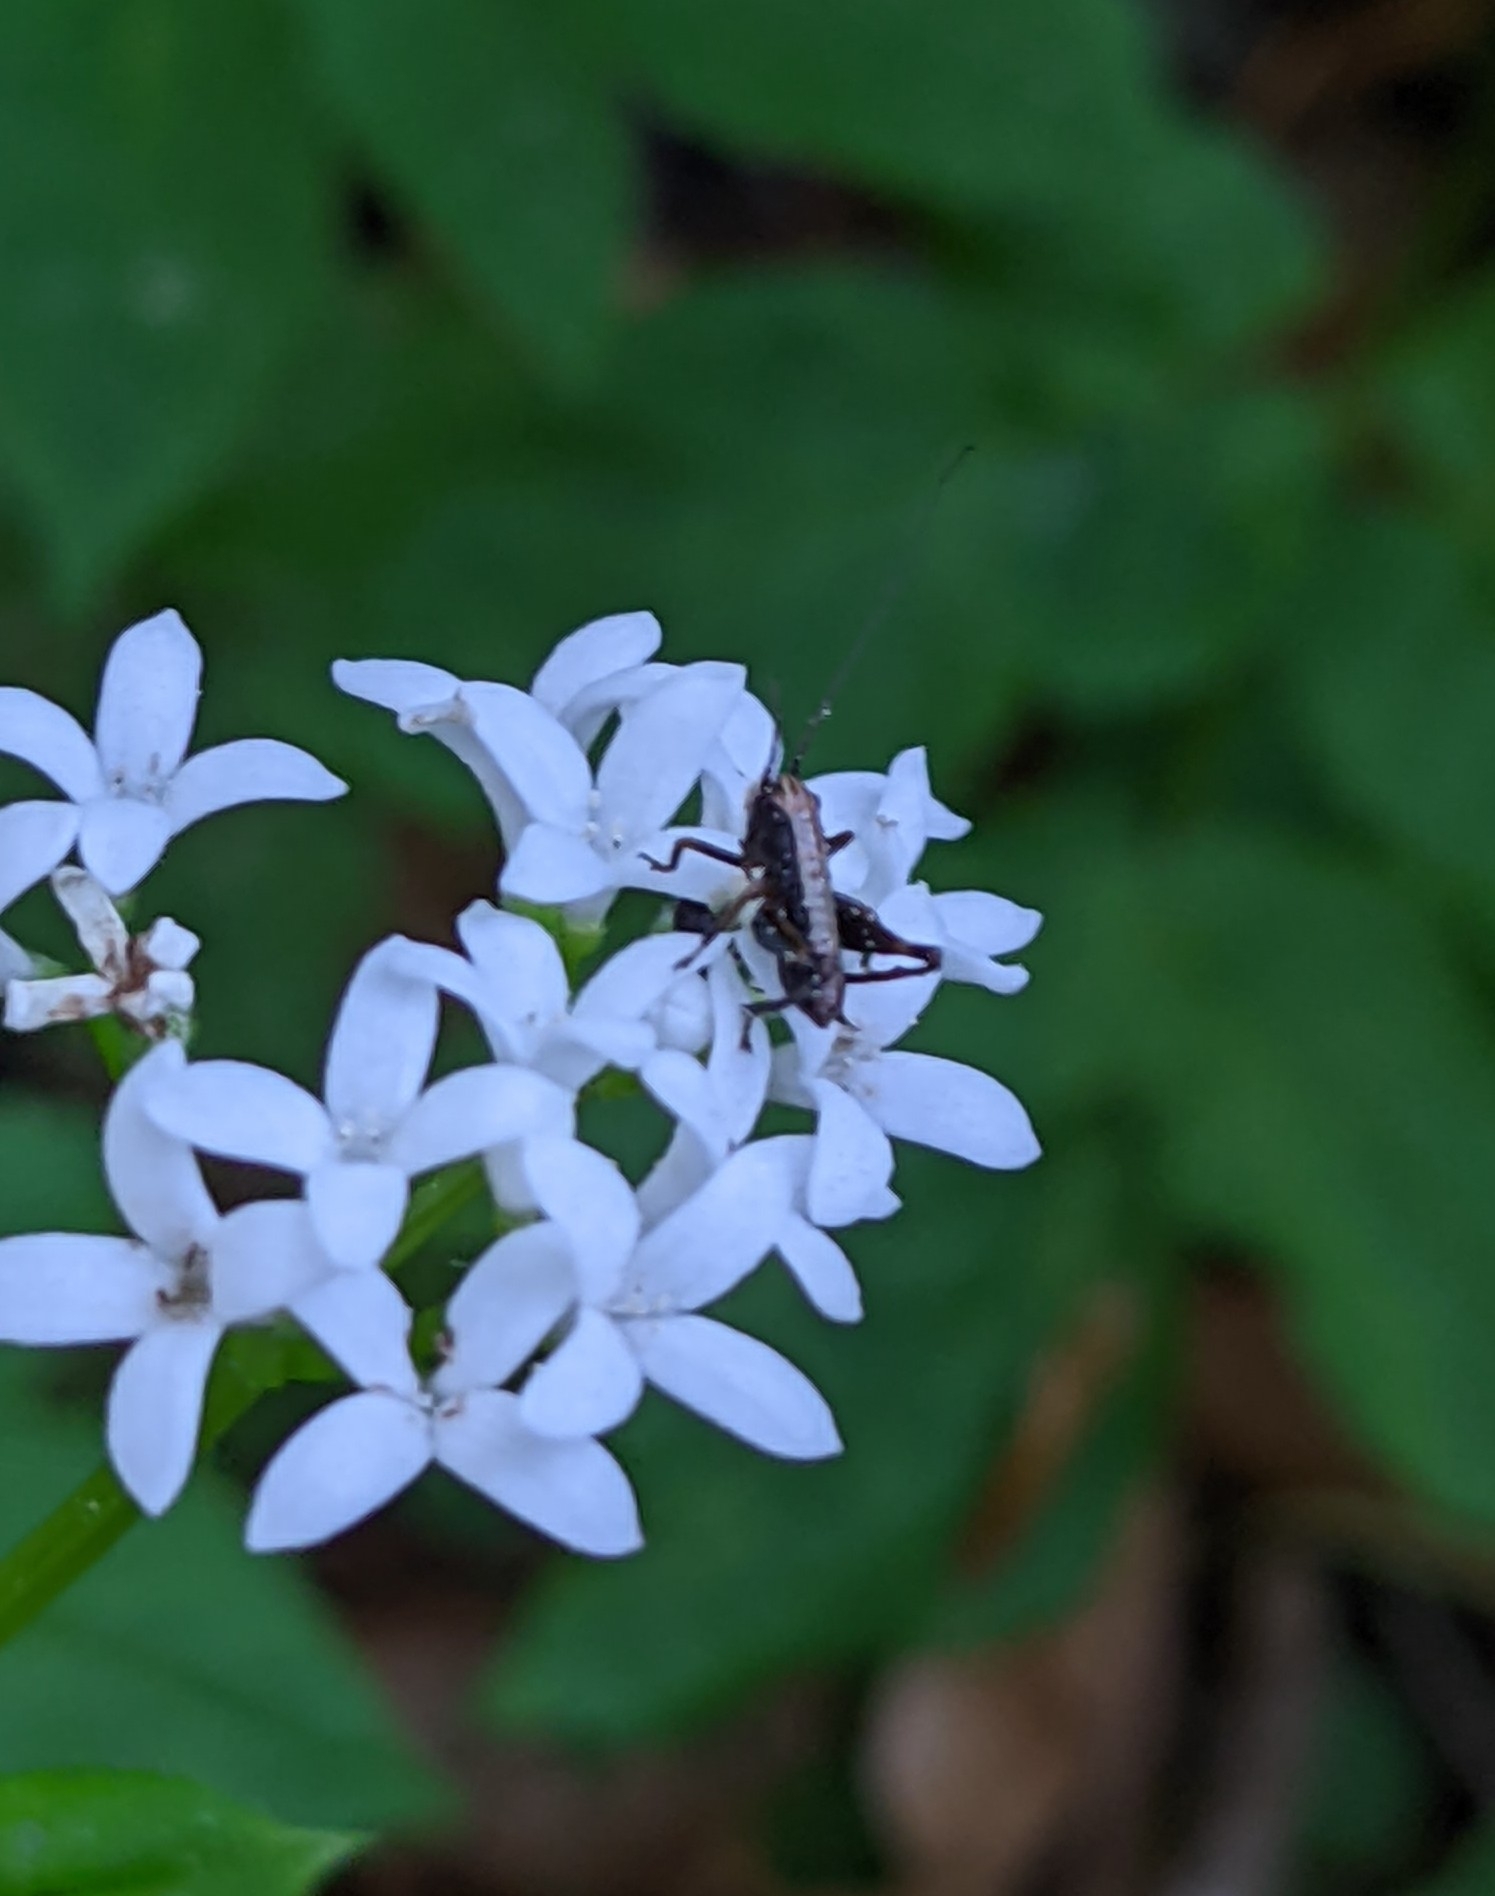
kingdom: Animalia
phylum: Arthropoda
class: Insecta
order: Orthoptera
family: Tettigoniidae
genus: Pholidoptera
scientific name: Pholidoptera griseoaptera
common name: Dark bush-cricket
